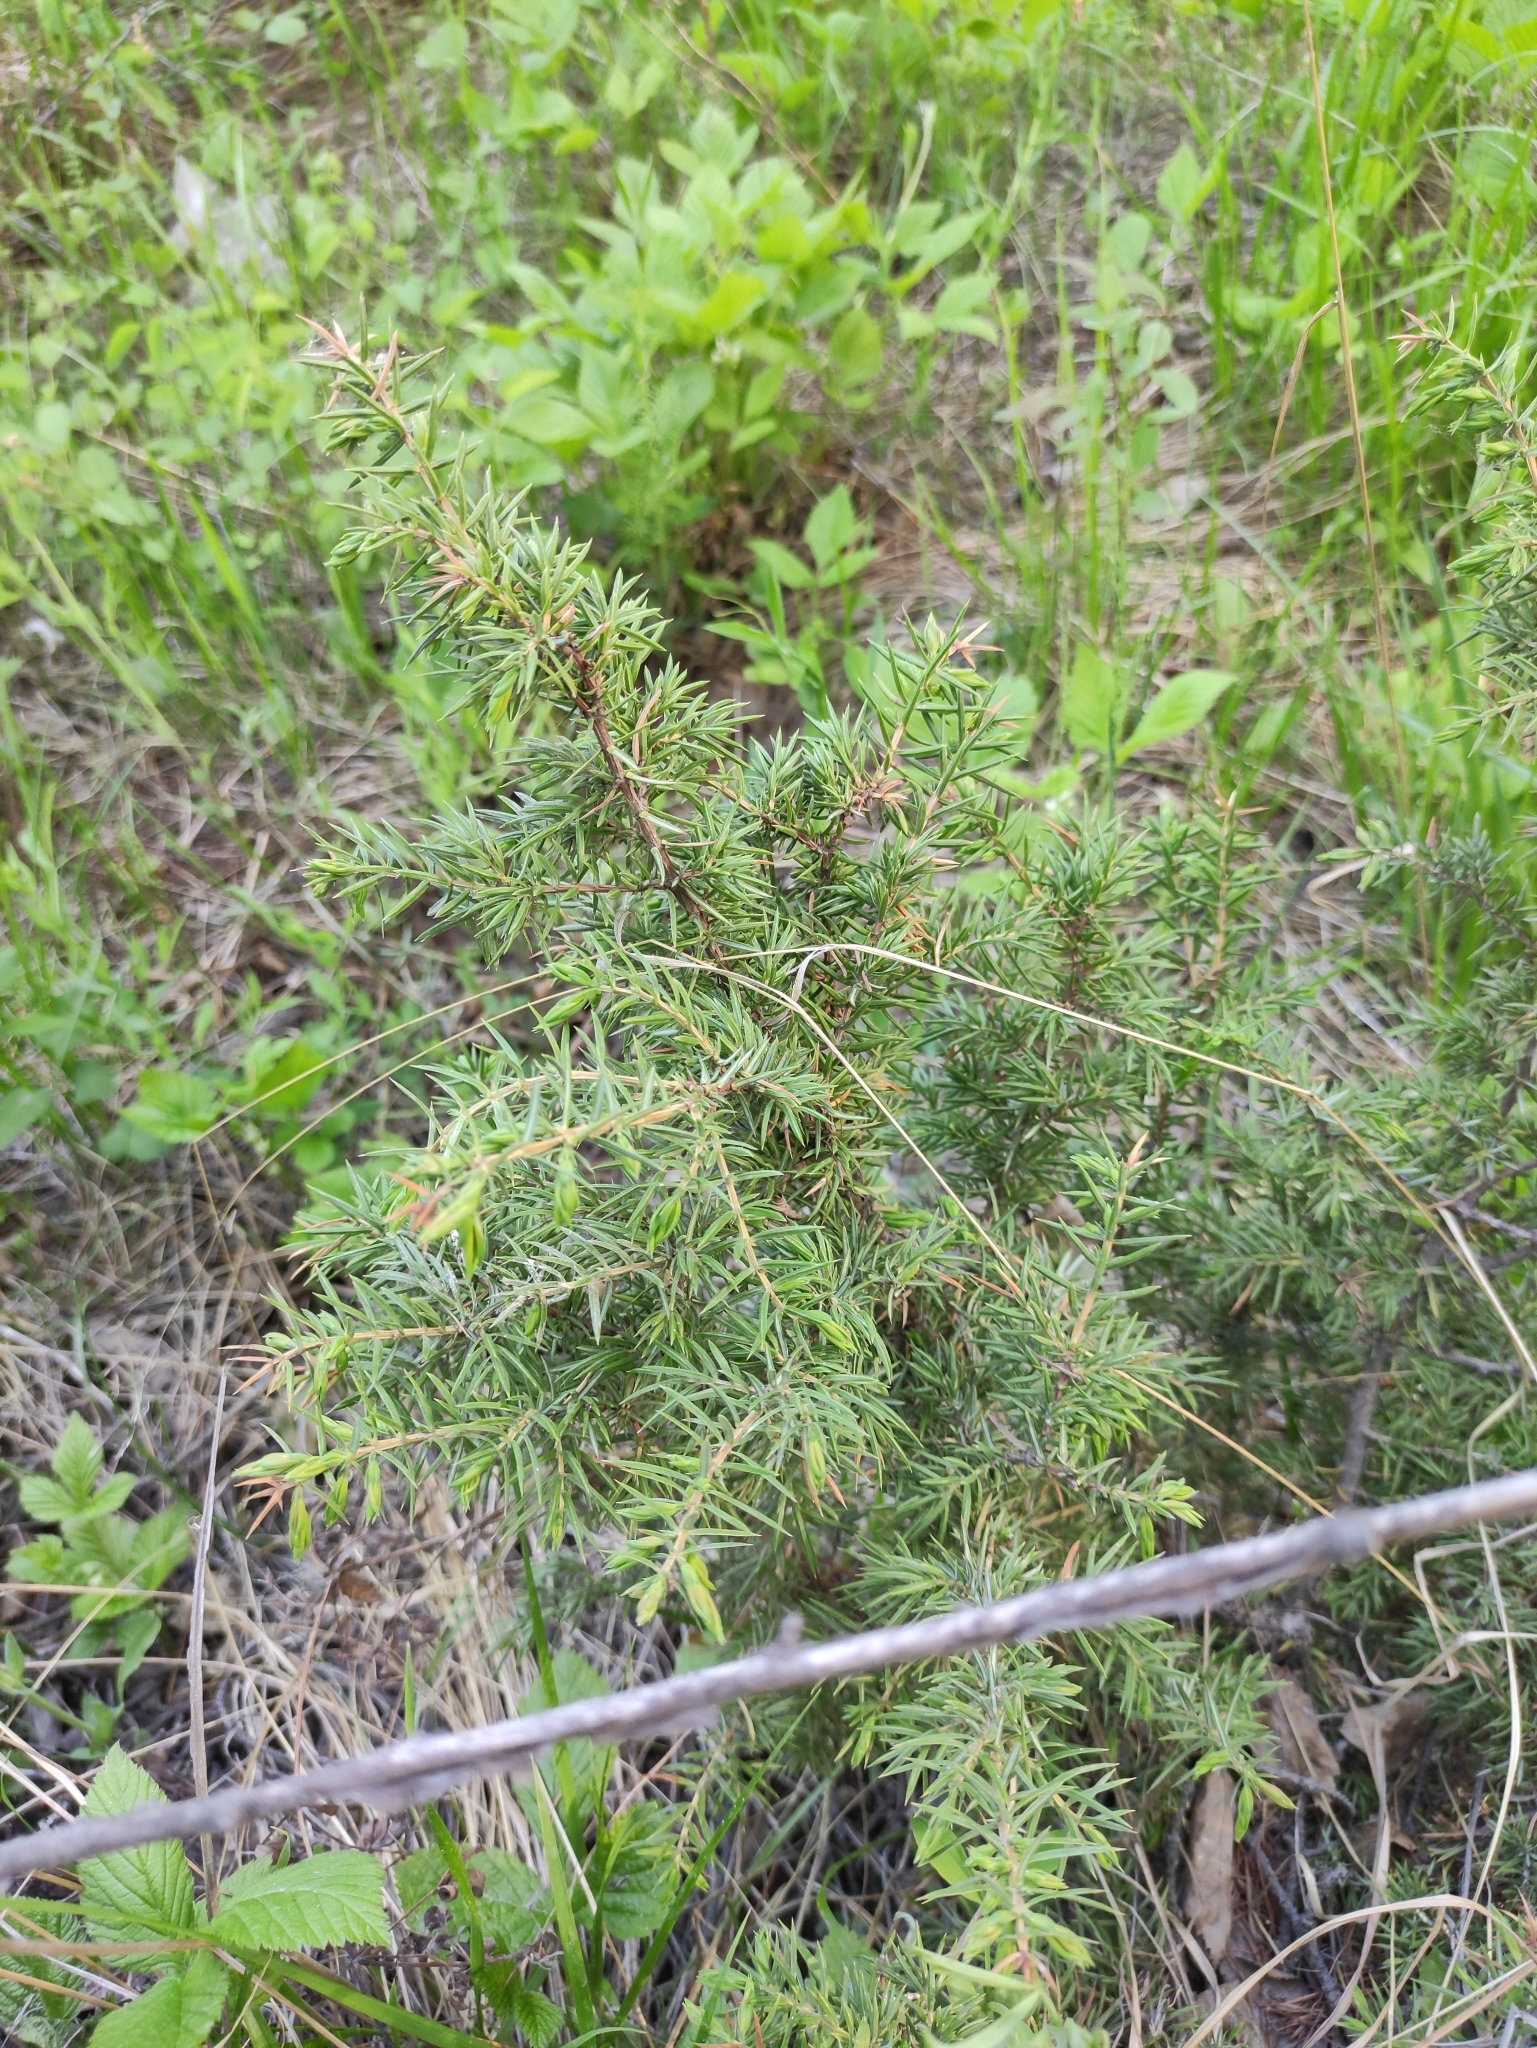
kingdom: Plantae
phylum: Tracheophyta
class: Pinopsida
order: Pinales
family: Cupressaceae
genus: Juniperus
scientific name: Juniperus communis
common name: Common juniper
